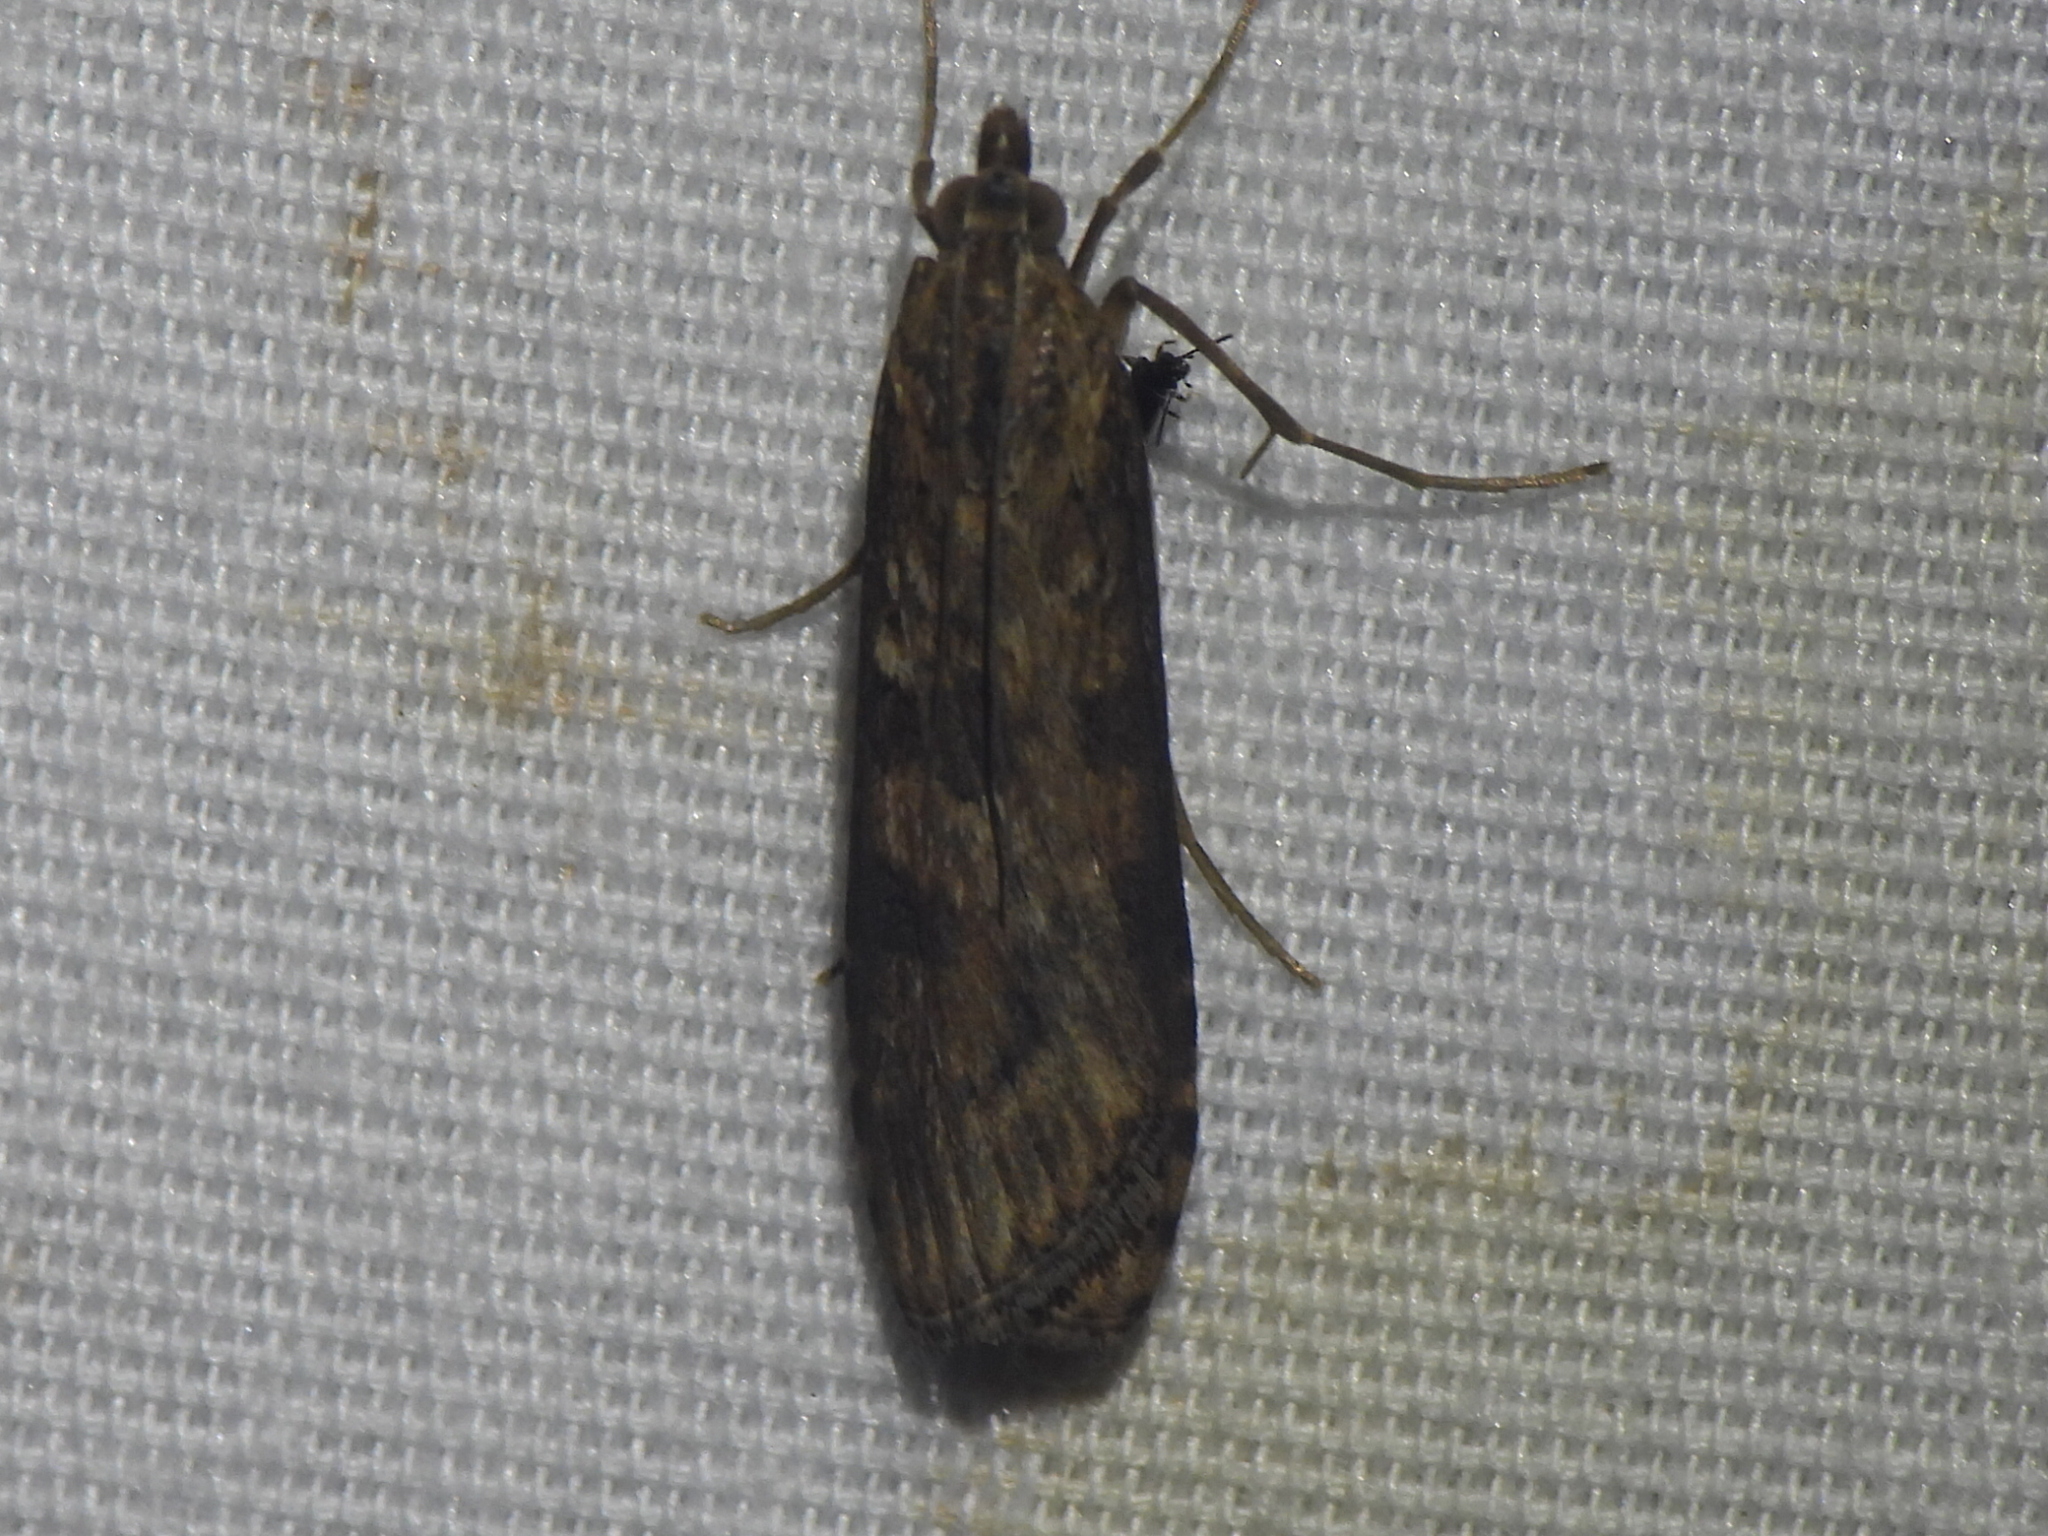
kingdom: Animalia
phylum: Arthropoda
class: Insecta
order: Lepidoptera
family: Crambidae
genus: Nomophila
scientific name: Nomophila nearctica
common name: American rush veneer
